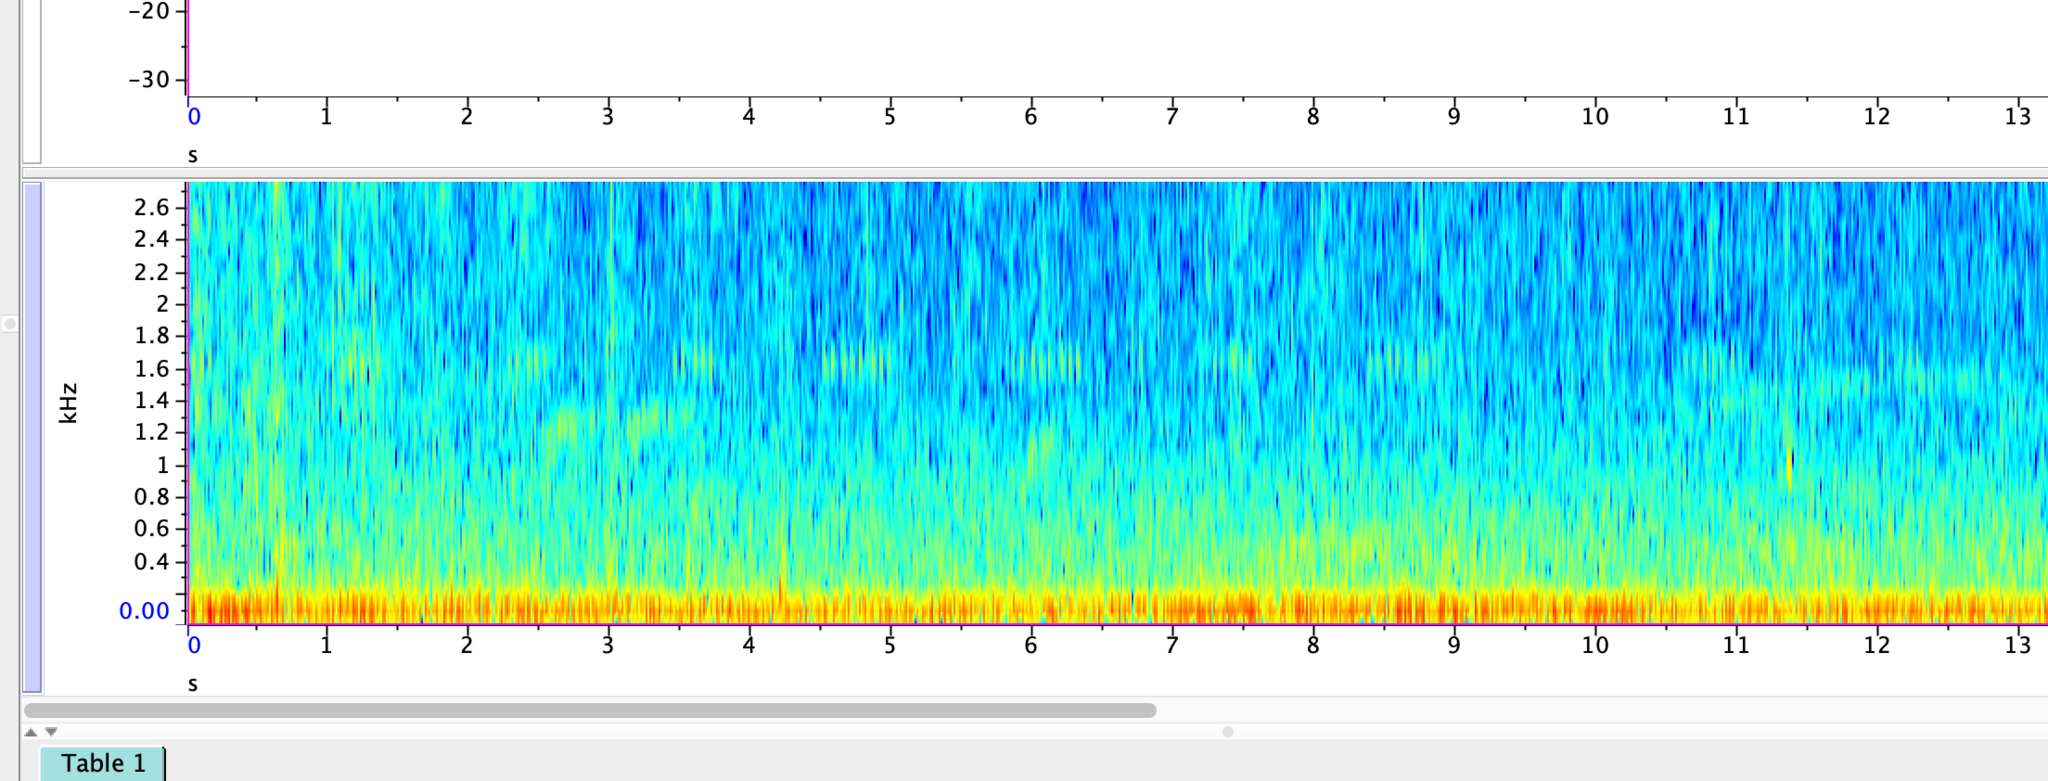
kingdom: Animalia
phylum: Arthropoda
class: Insecta
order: Orthoptera
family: Gryllidae
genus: Oecanthus
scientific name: Oecanthus fultoni
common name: Snowy tree cricket
